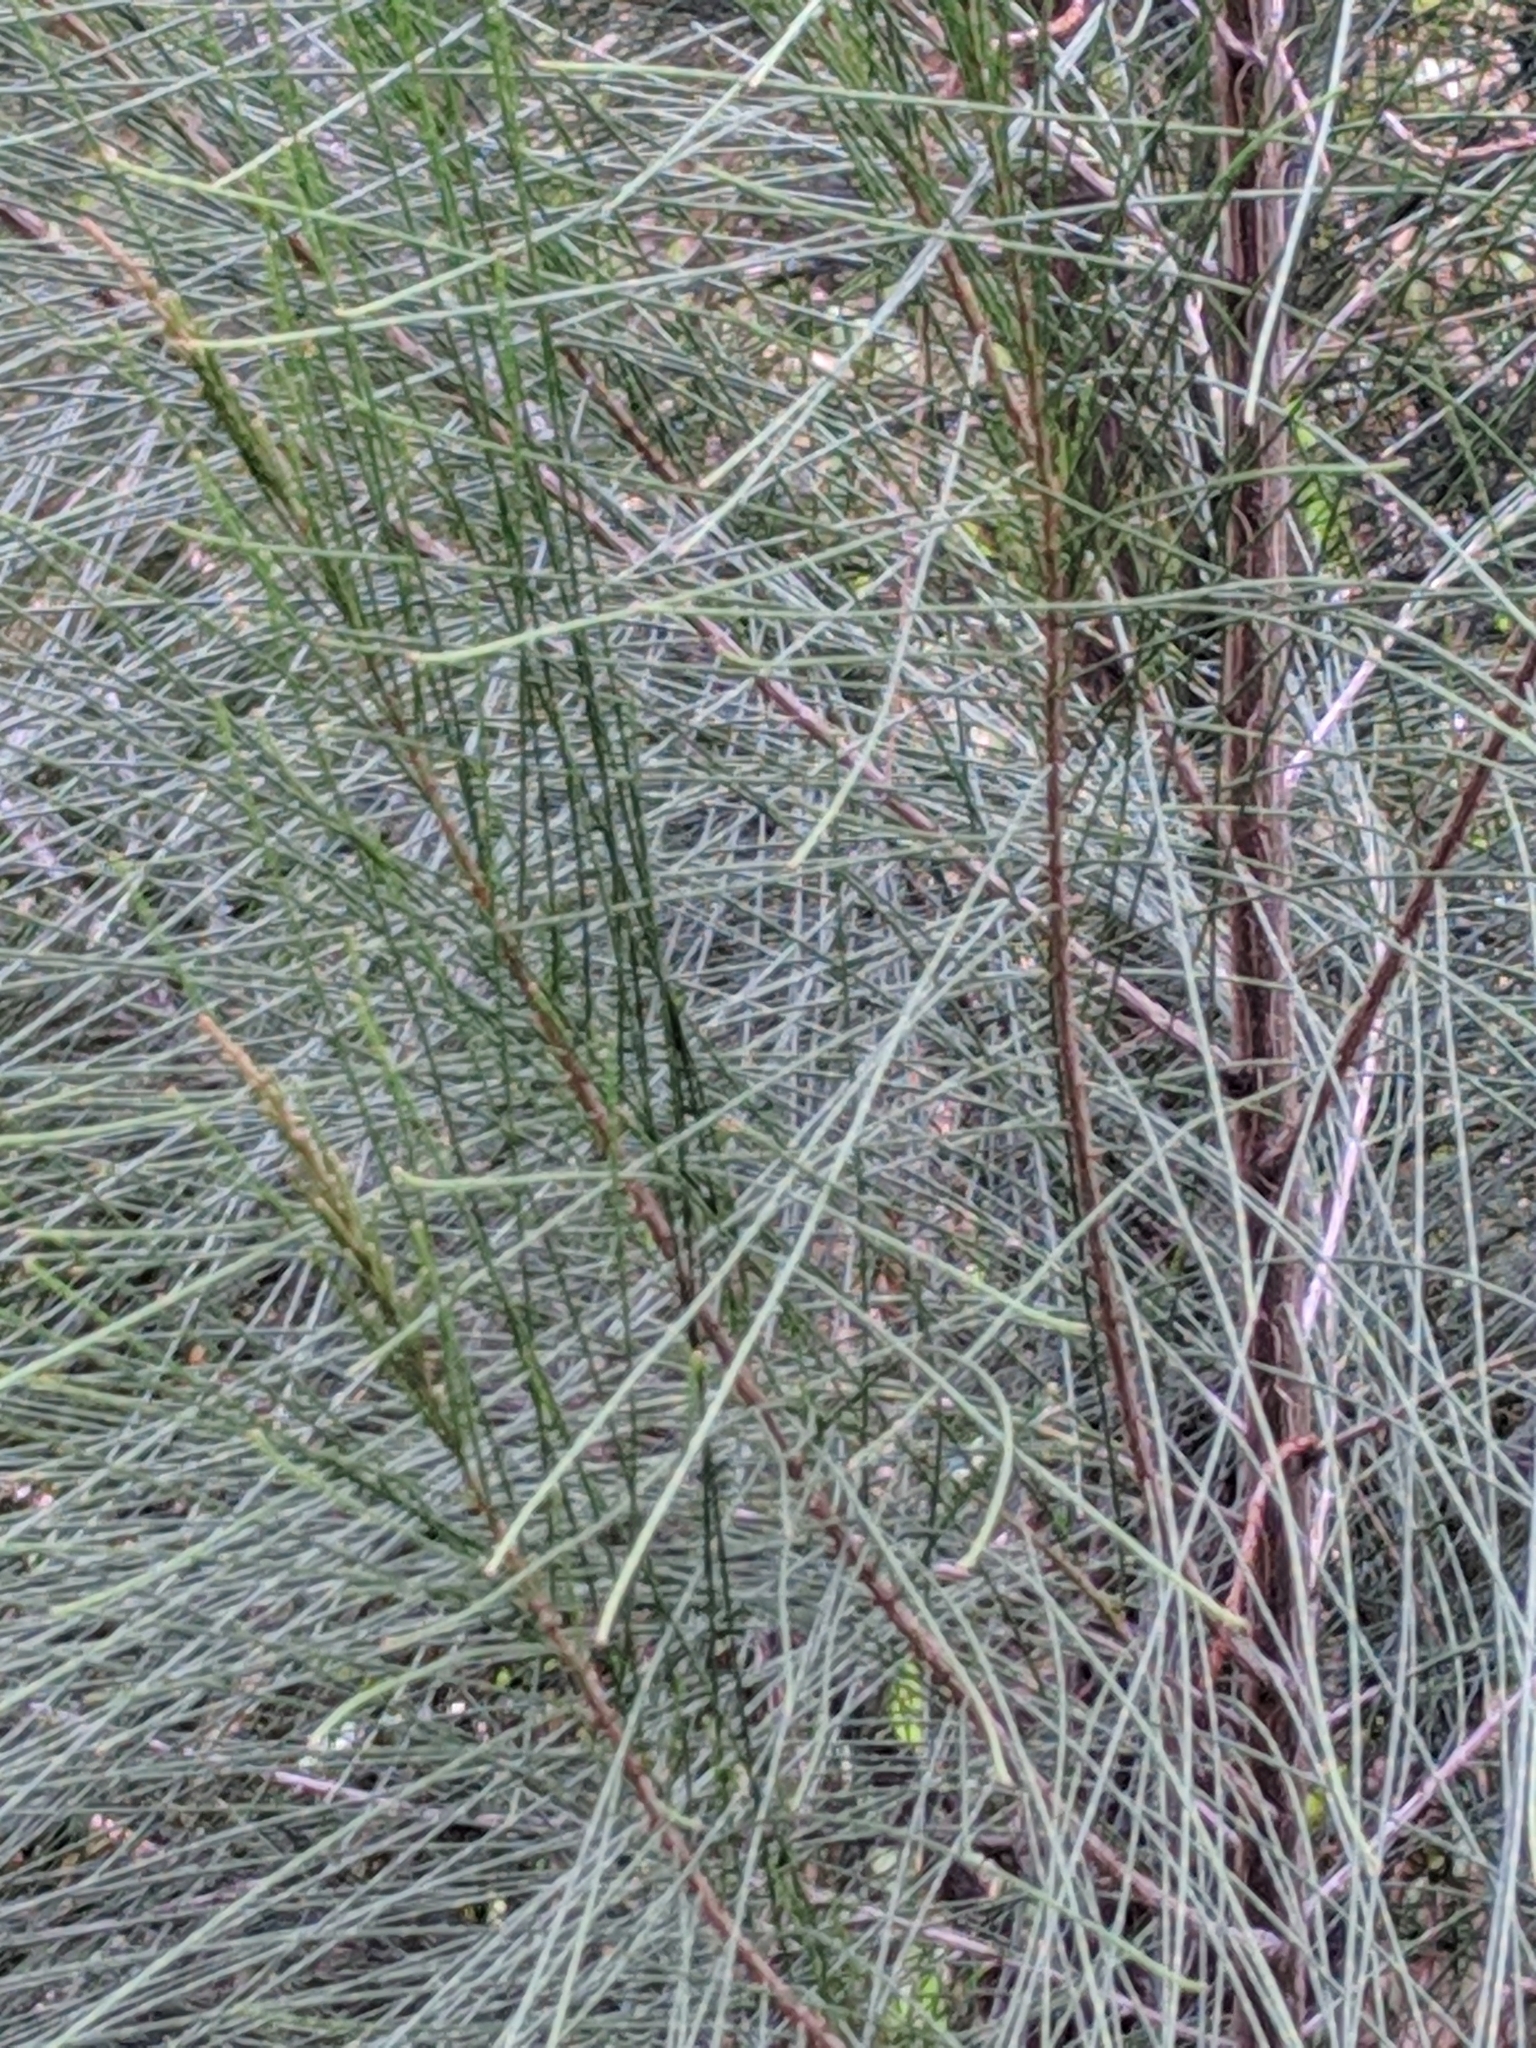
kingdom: Plantae
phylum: Tracheophyta
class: Magnoliopsida
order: Fagales
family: Casuarinaceae
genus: Casuarina
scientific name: Casuarina cunninghamiana
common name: River sheoak
